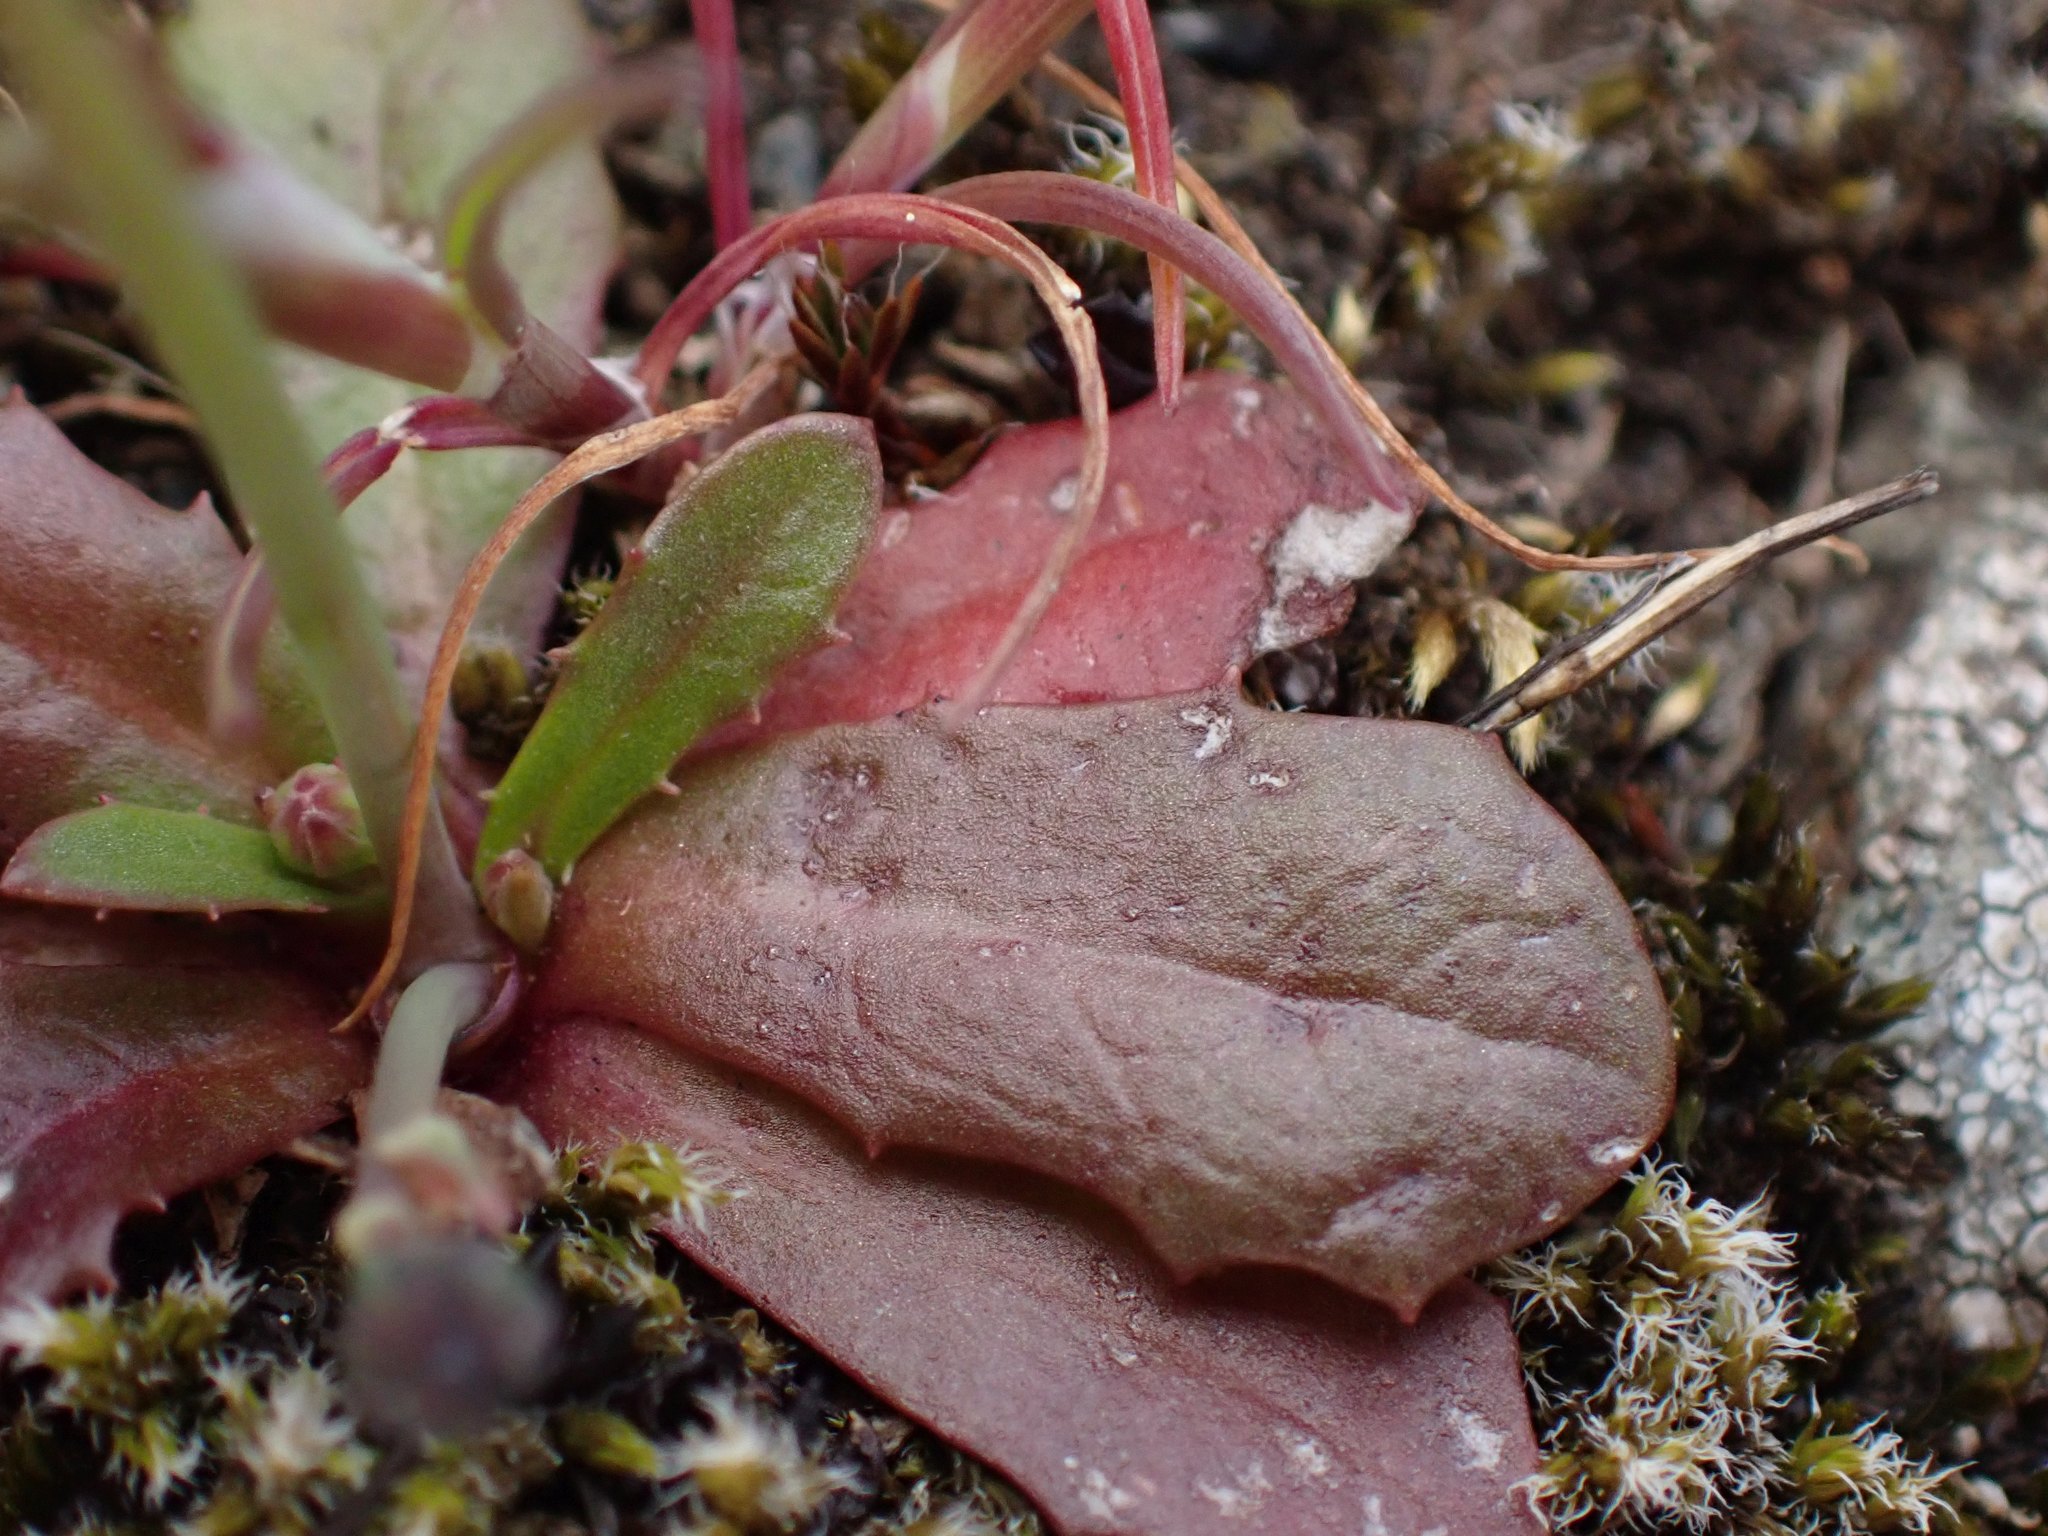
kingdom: Plantae
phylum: Tracheophyta
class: Magnoliopsida
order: Asterales
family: Asteraceae
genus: Hypochaeris
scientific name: Hypochaeris glabra
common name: Smooth catsear
